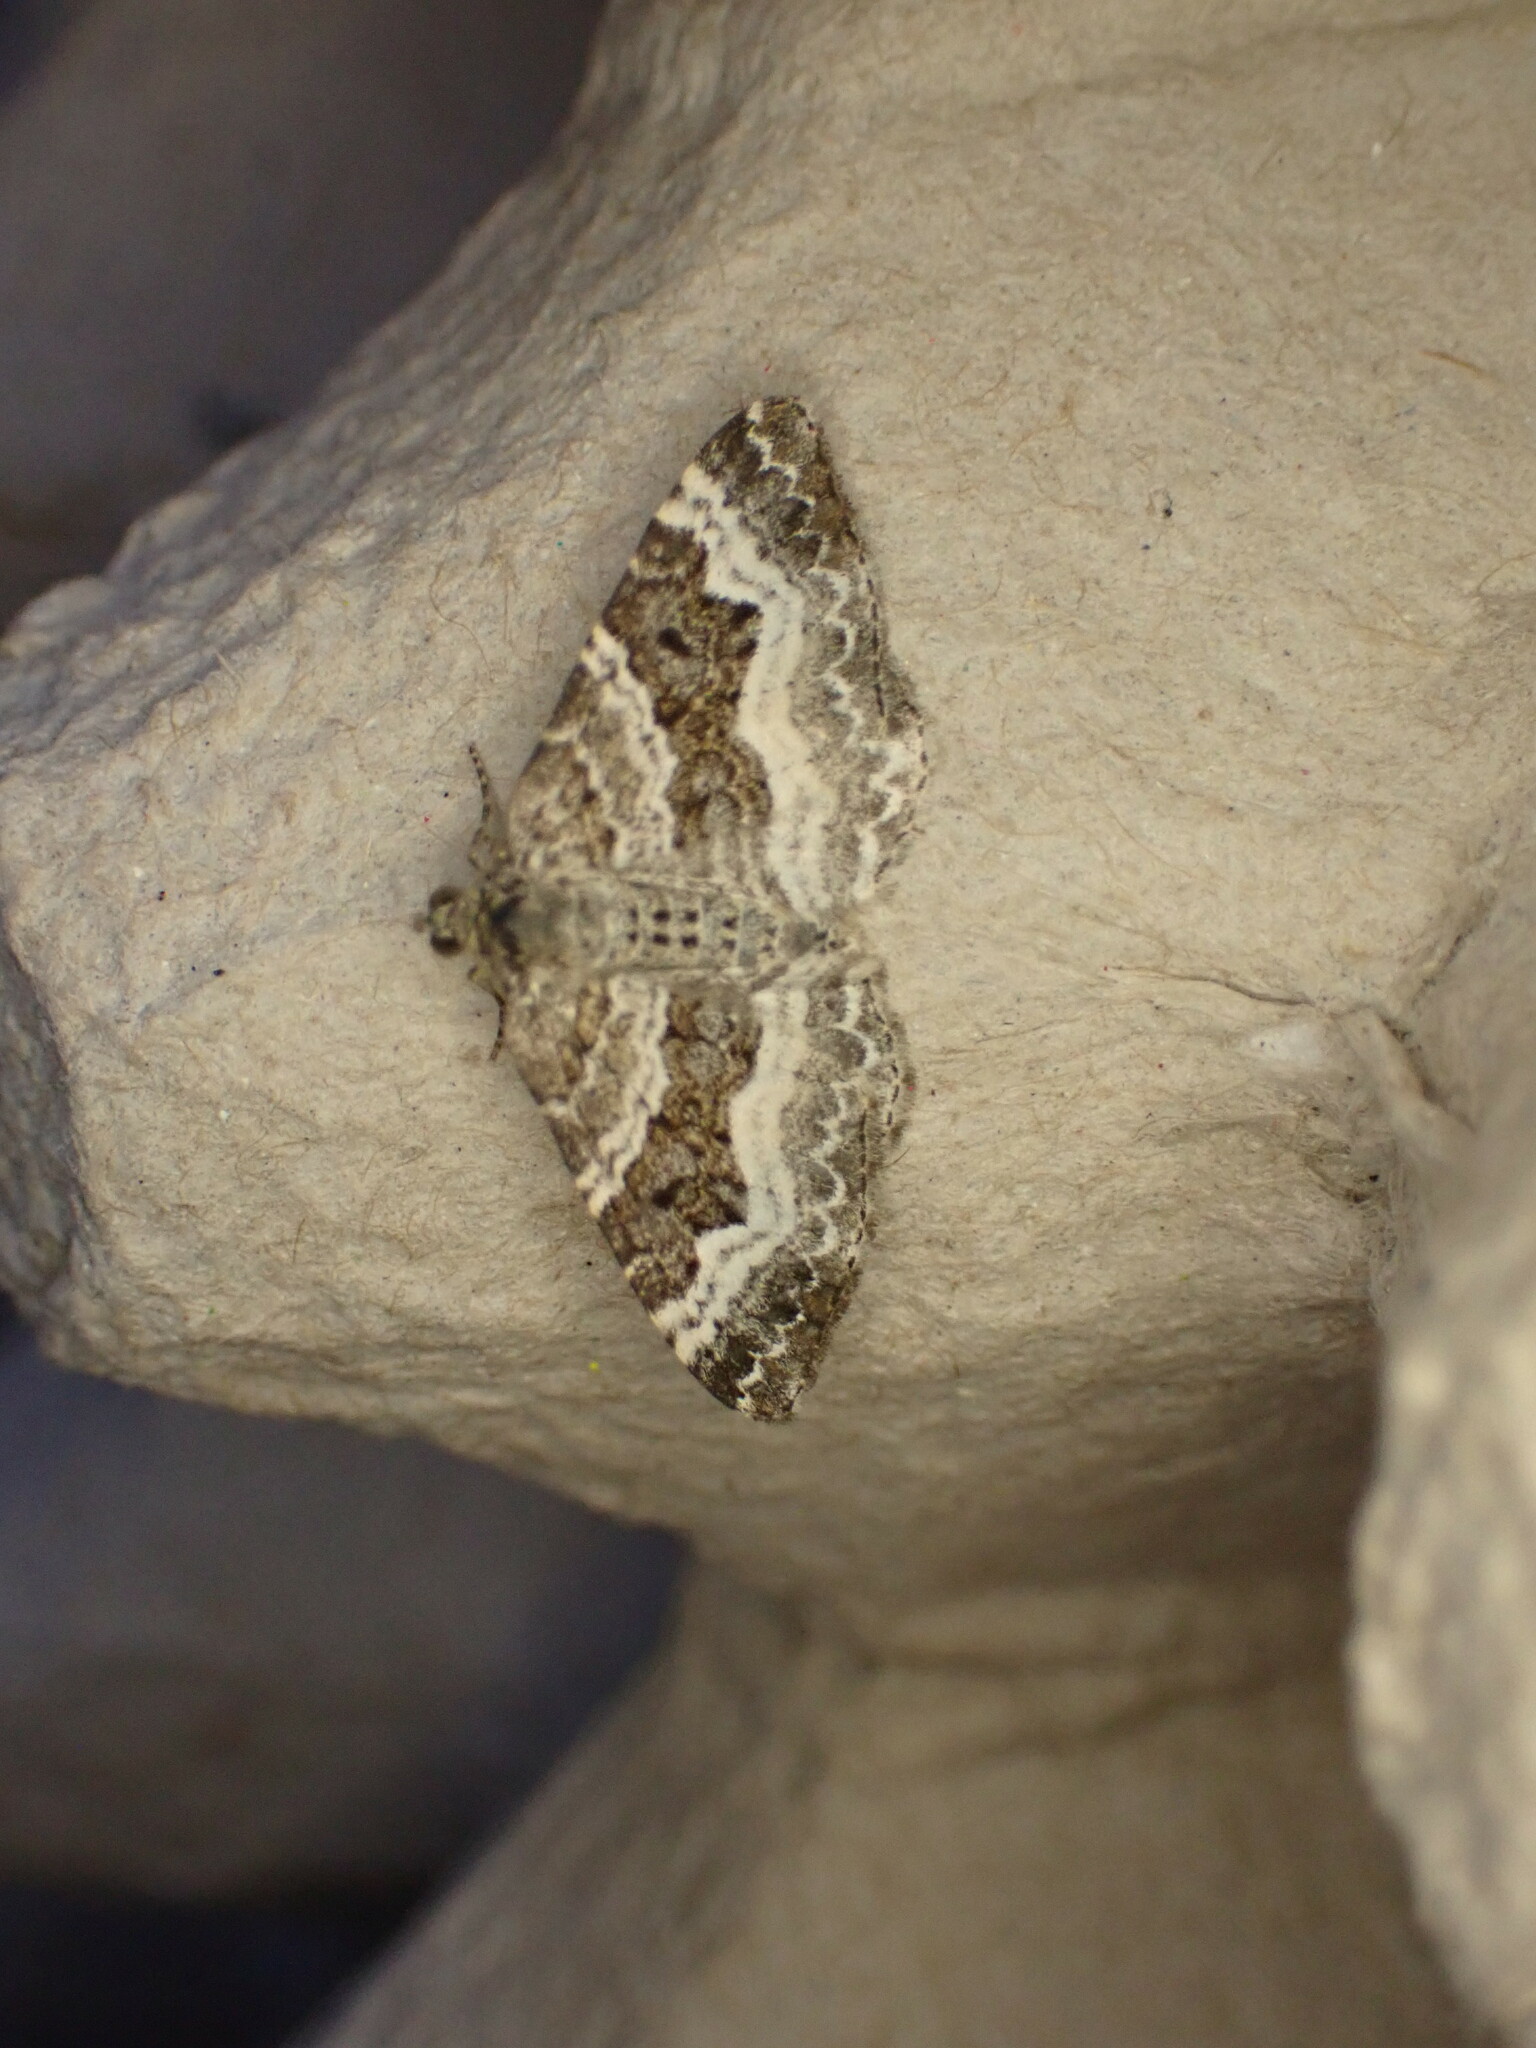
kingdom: Animalia
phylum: Arthropoda
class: Insecta
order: Lepidoptera
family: Geometridae
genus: Epirrhoe
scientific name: Epirrhoe alternata
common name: Common carpet
